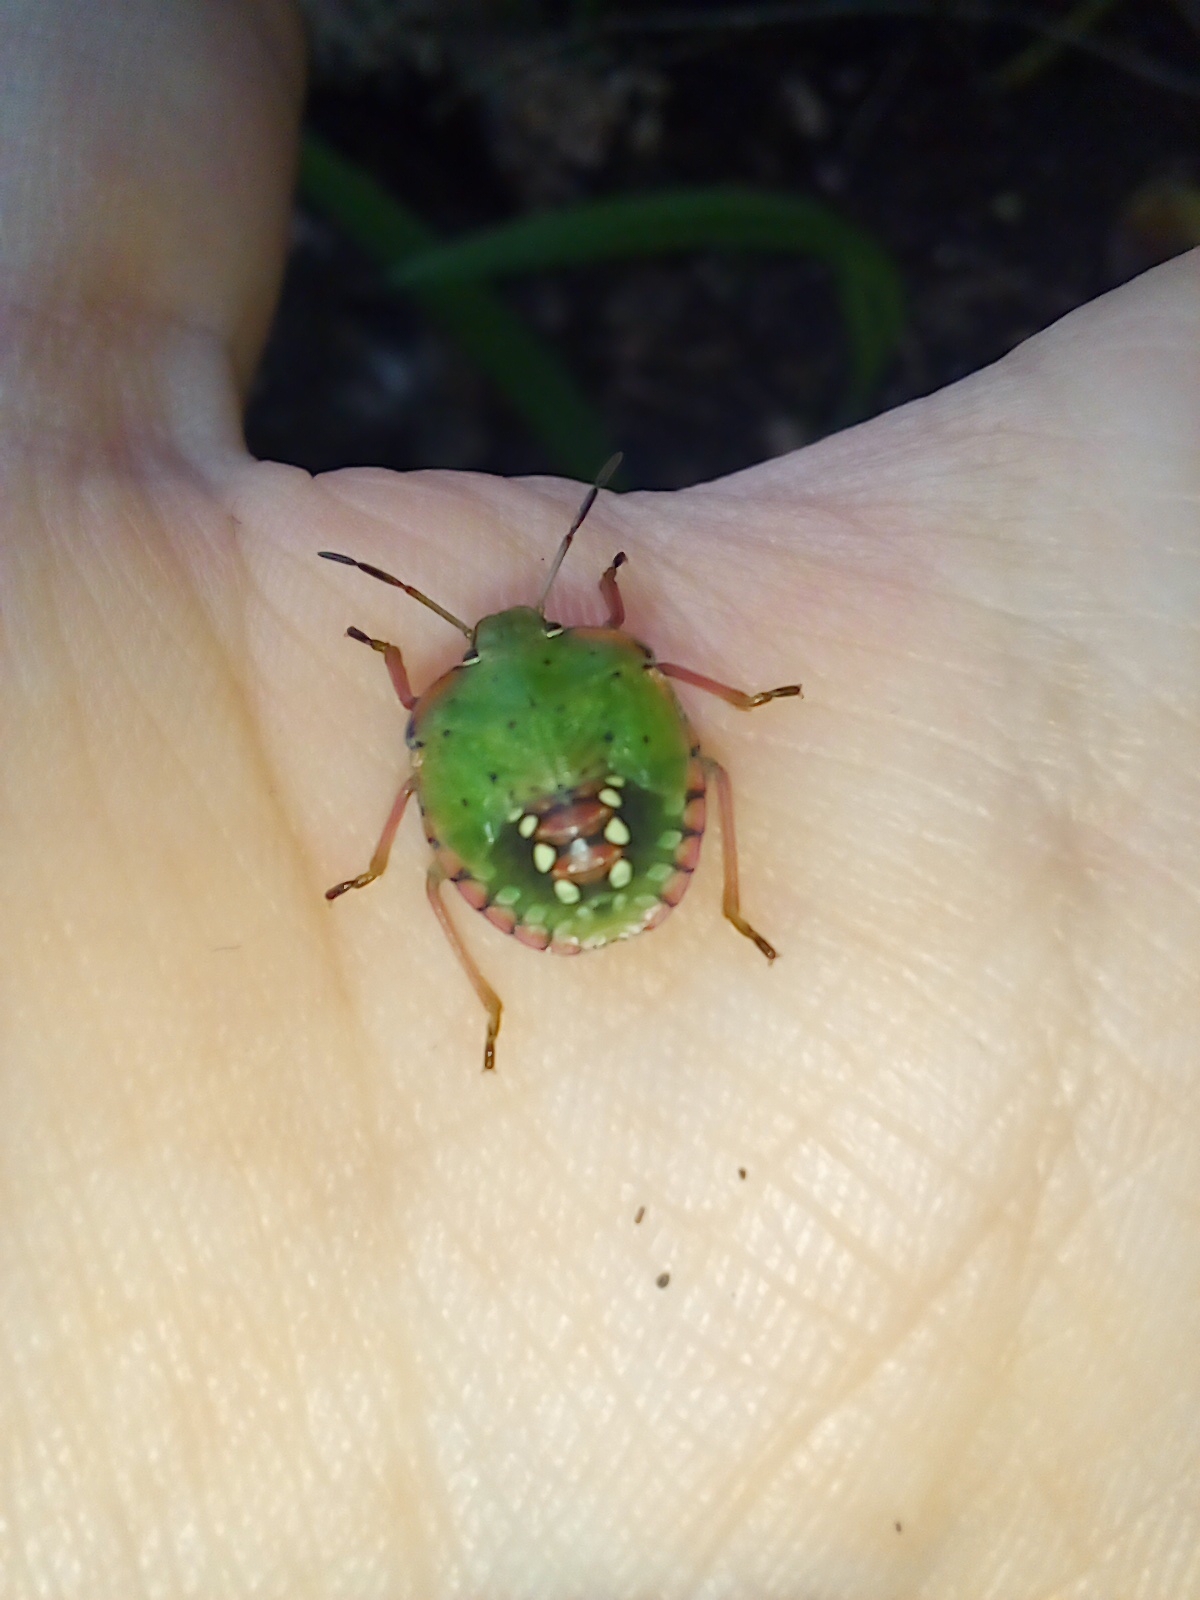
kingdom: Animalia
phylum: Arthropoda
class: Insecta
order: Hemiptera
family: Pentatomidae
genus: Nezara
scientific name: Nezara viridula
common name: Southern green stink bug
